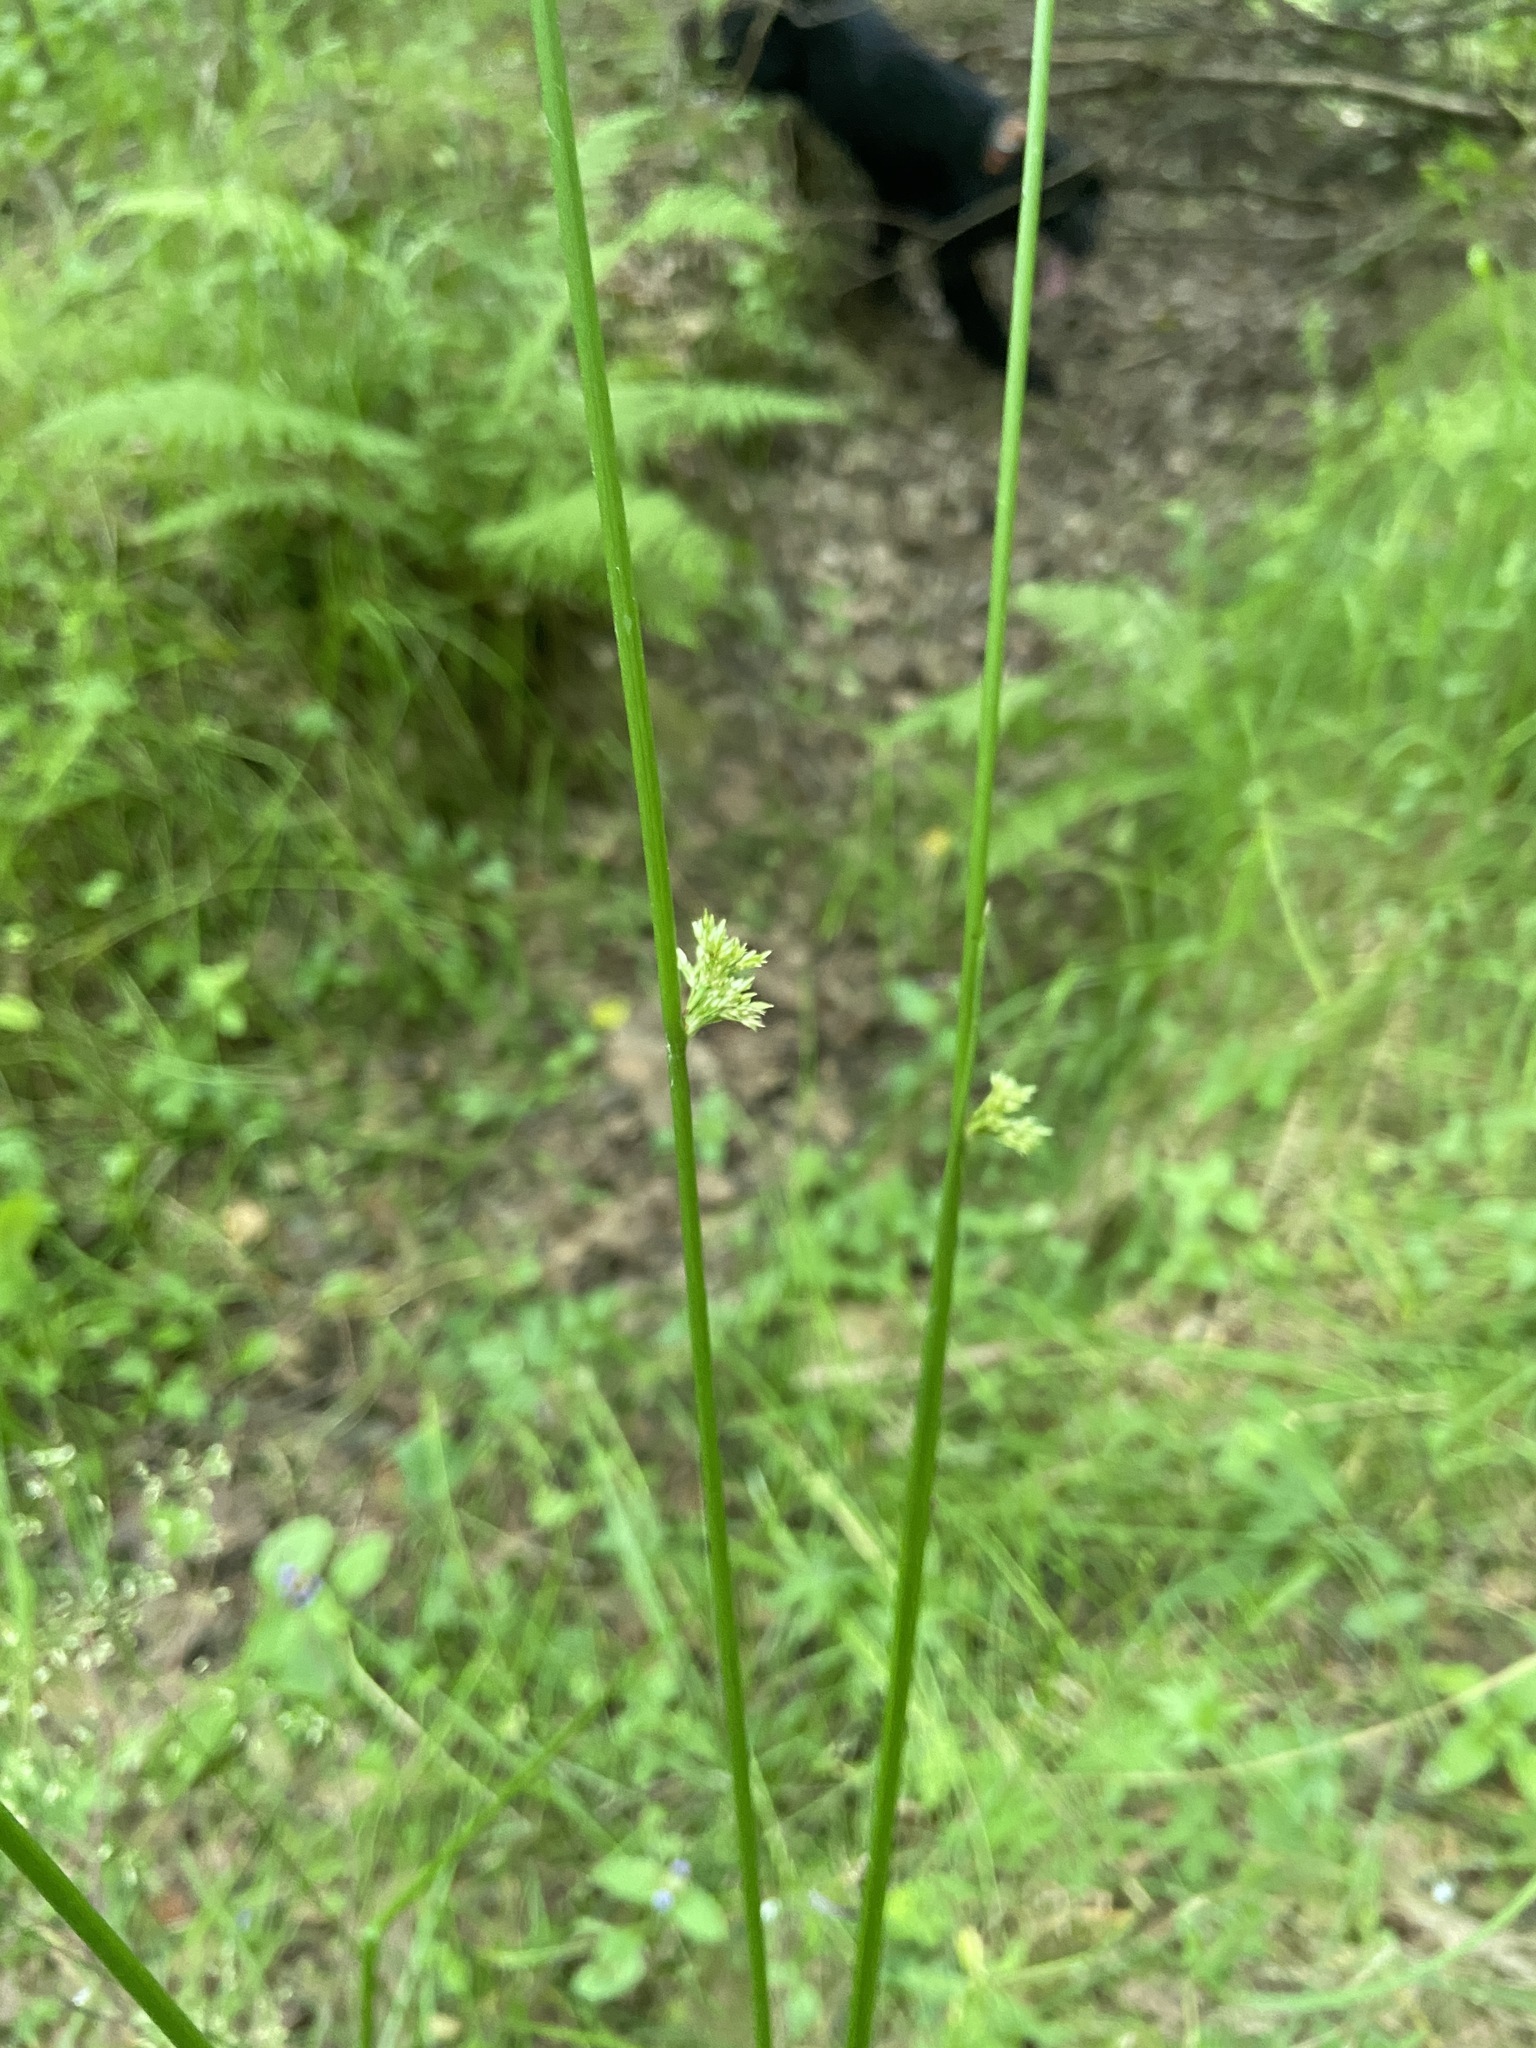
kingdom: Plantae
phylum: Tracheophyta
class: Liliopsida
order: Poales
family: Juncaceae
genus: Juncus
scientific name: Juncus effusus
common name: Soft rush
